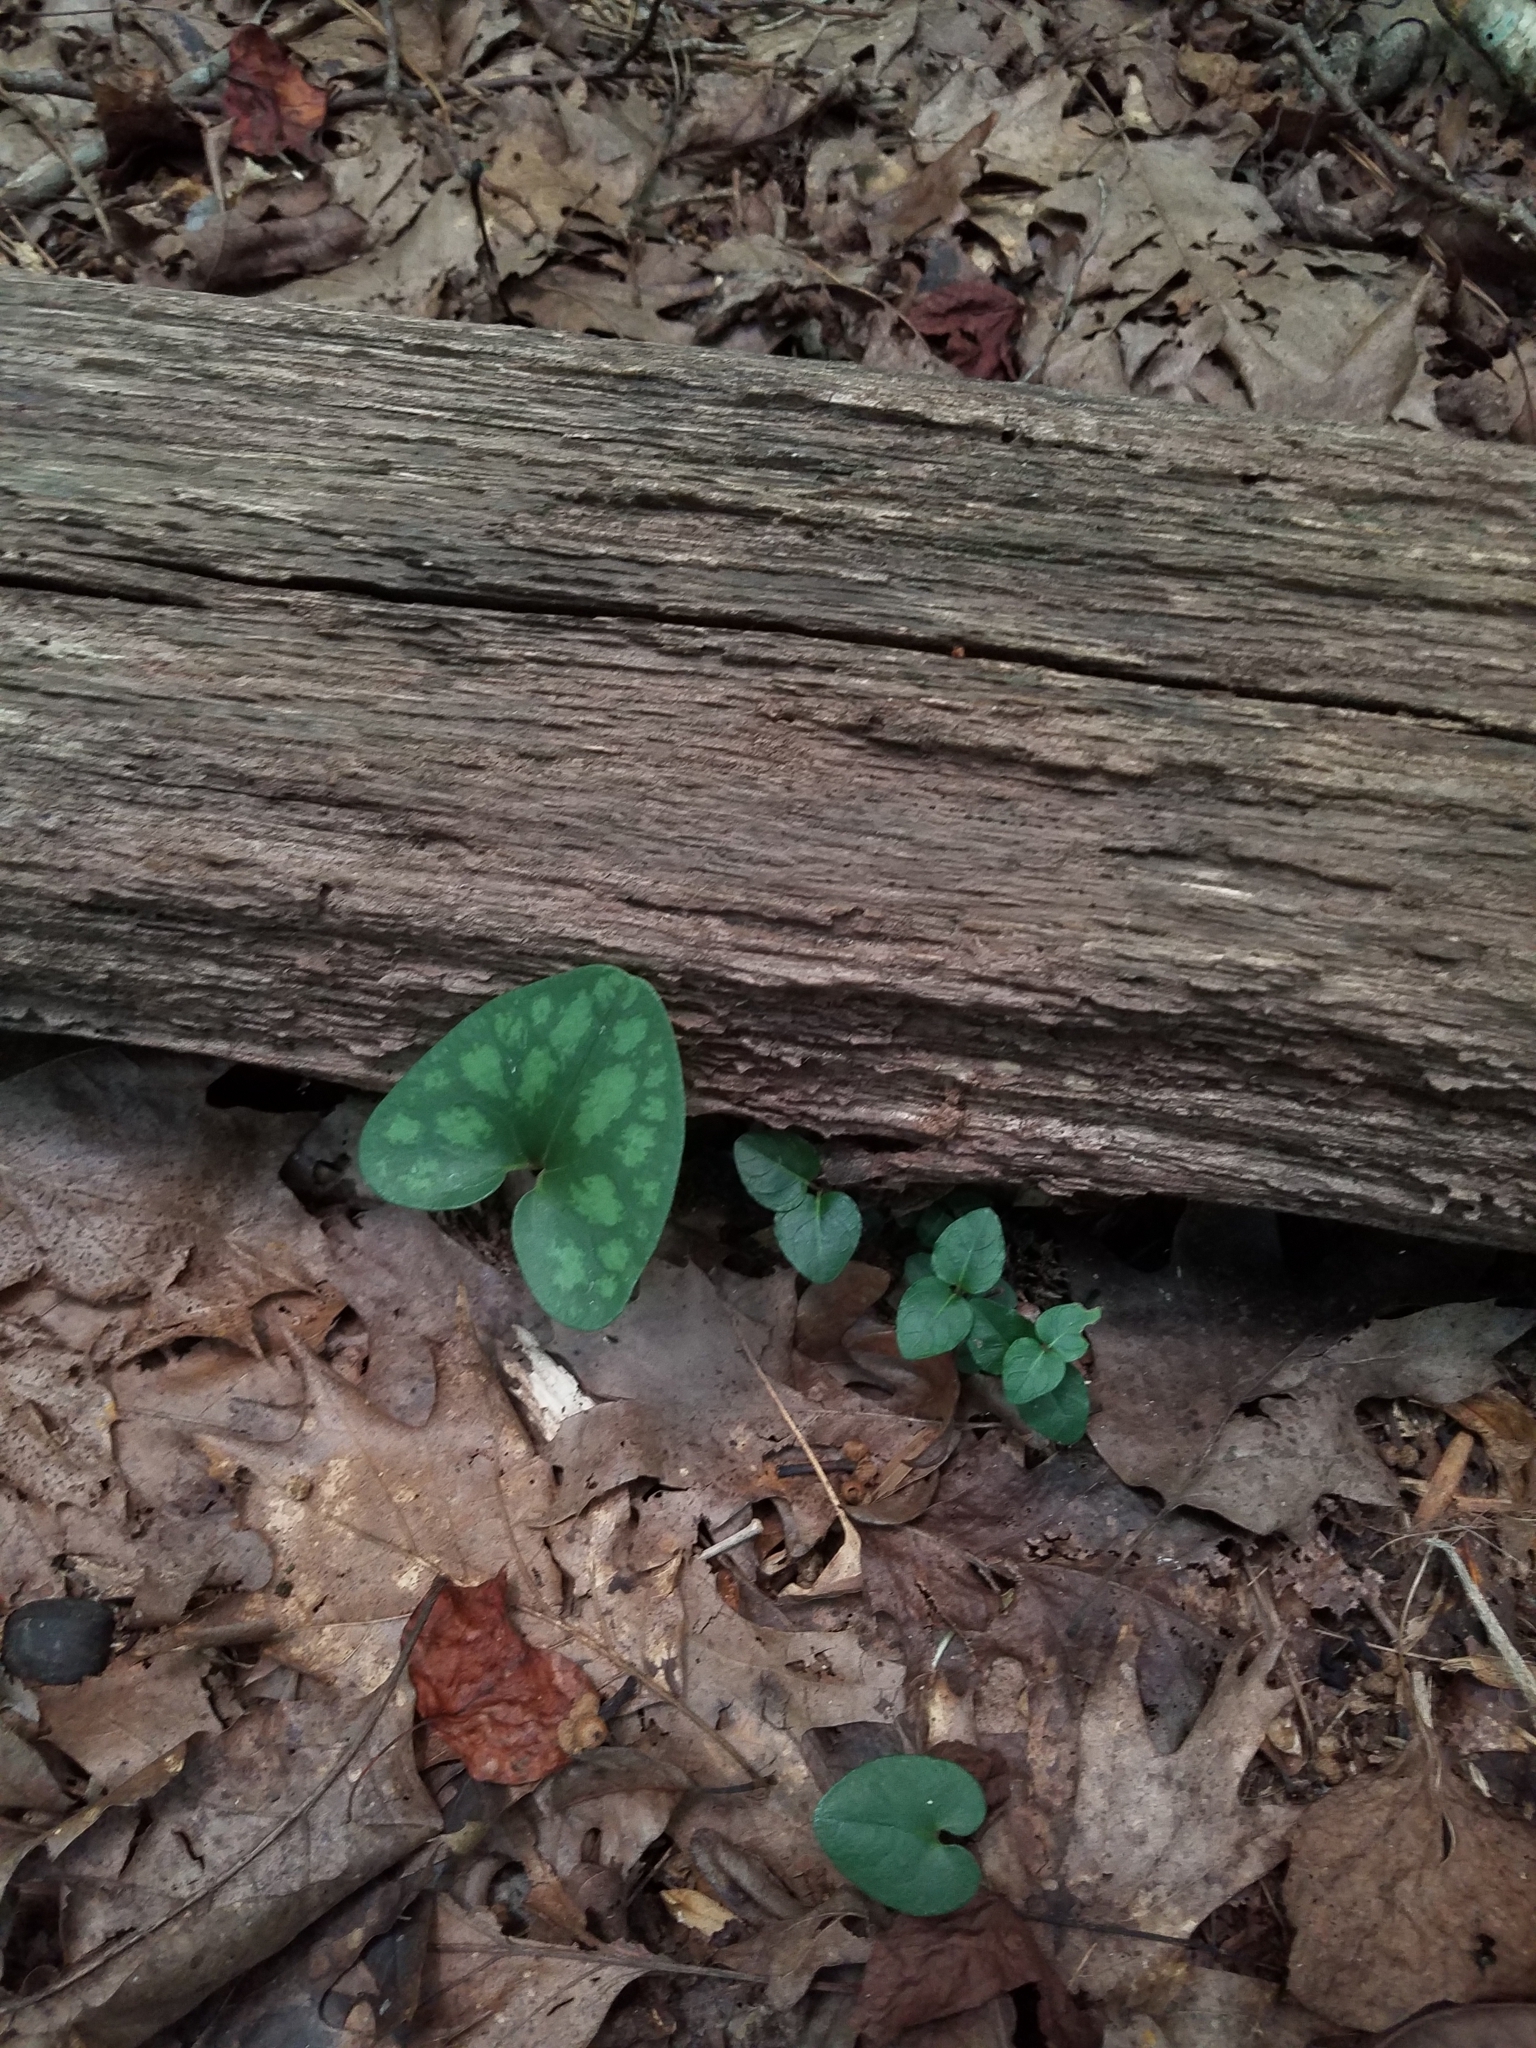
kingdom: Plantae
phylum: Tracheophyta
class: Magnoliopsida
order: Piperales
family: Aristolochiaceae
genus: Hexastylis
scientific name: Hexastylis arifolia
